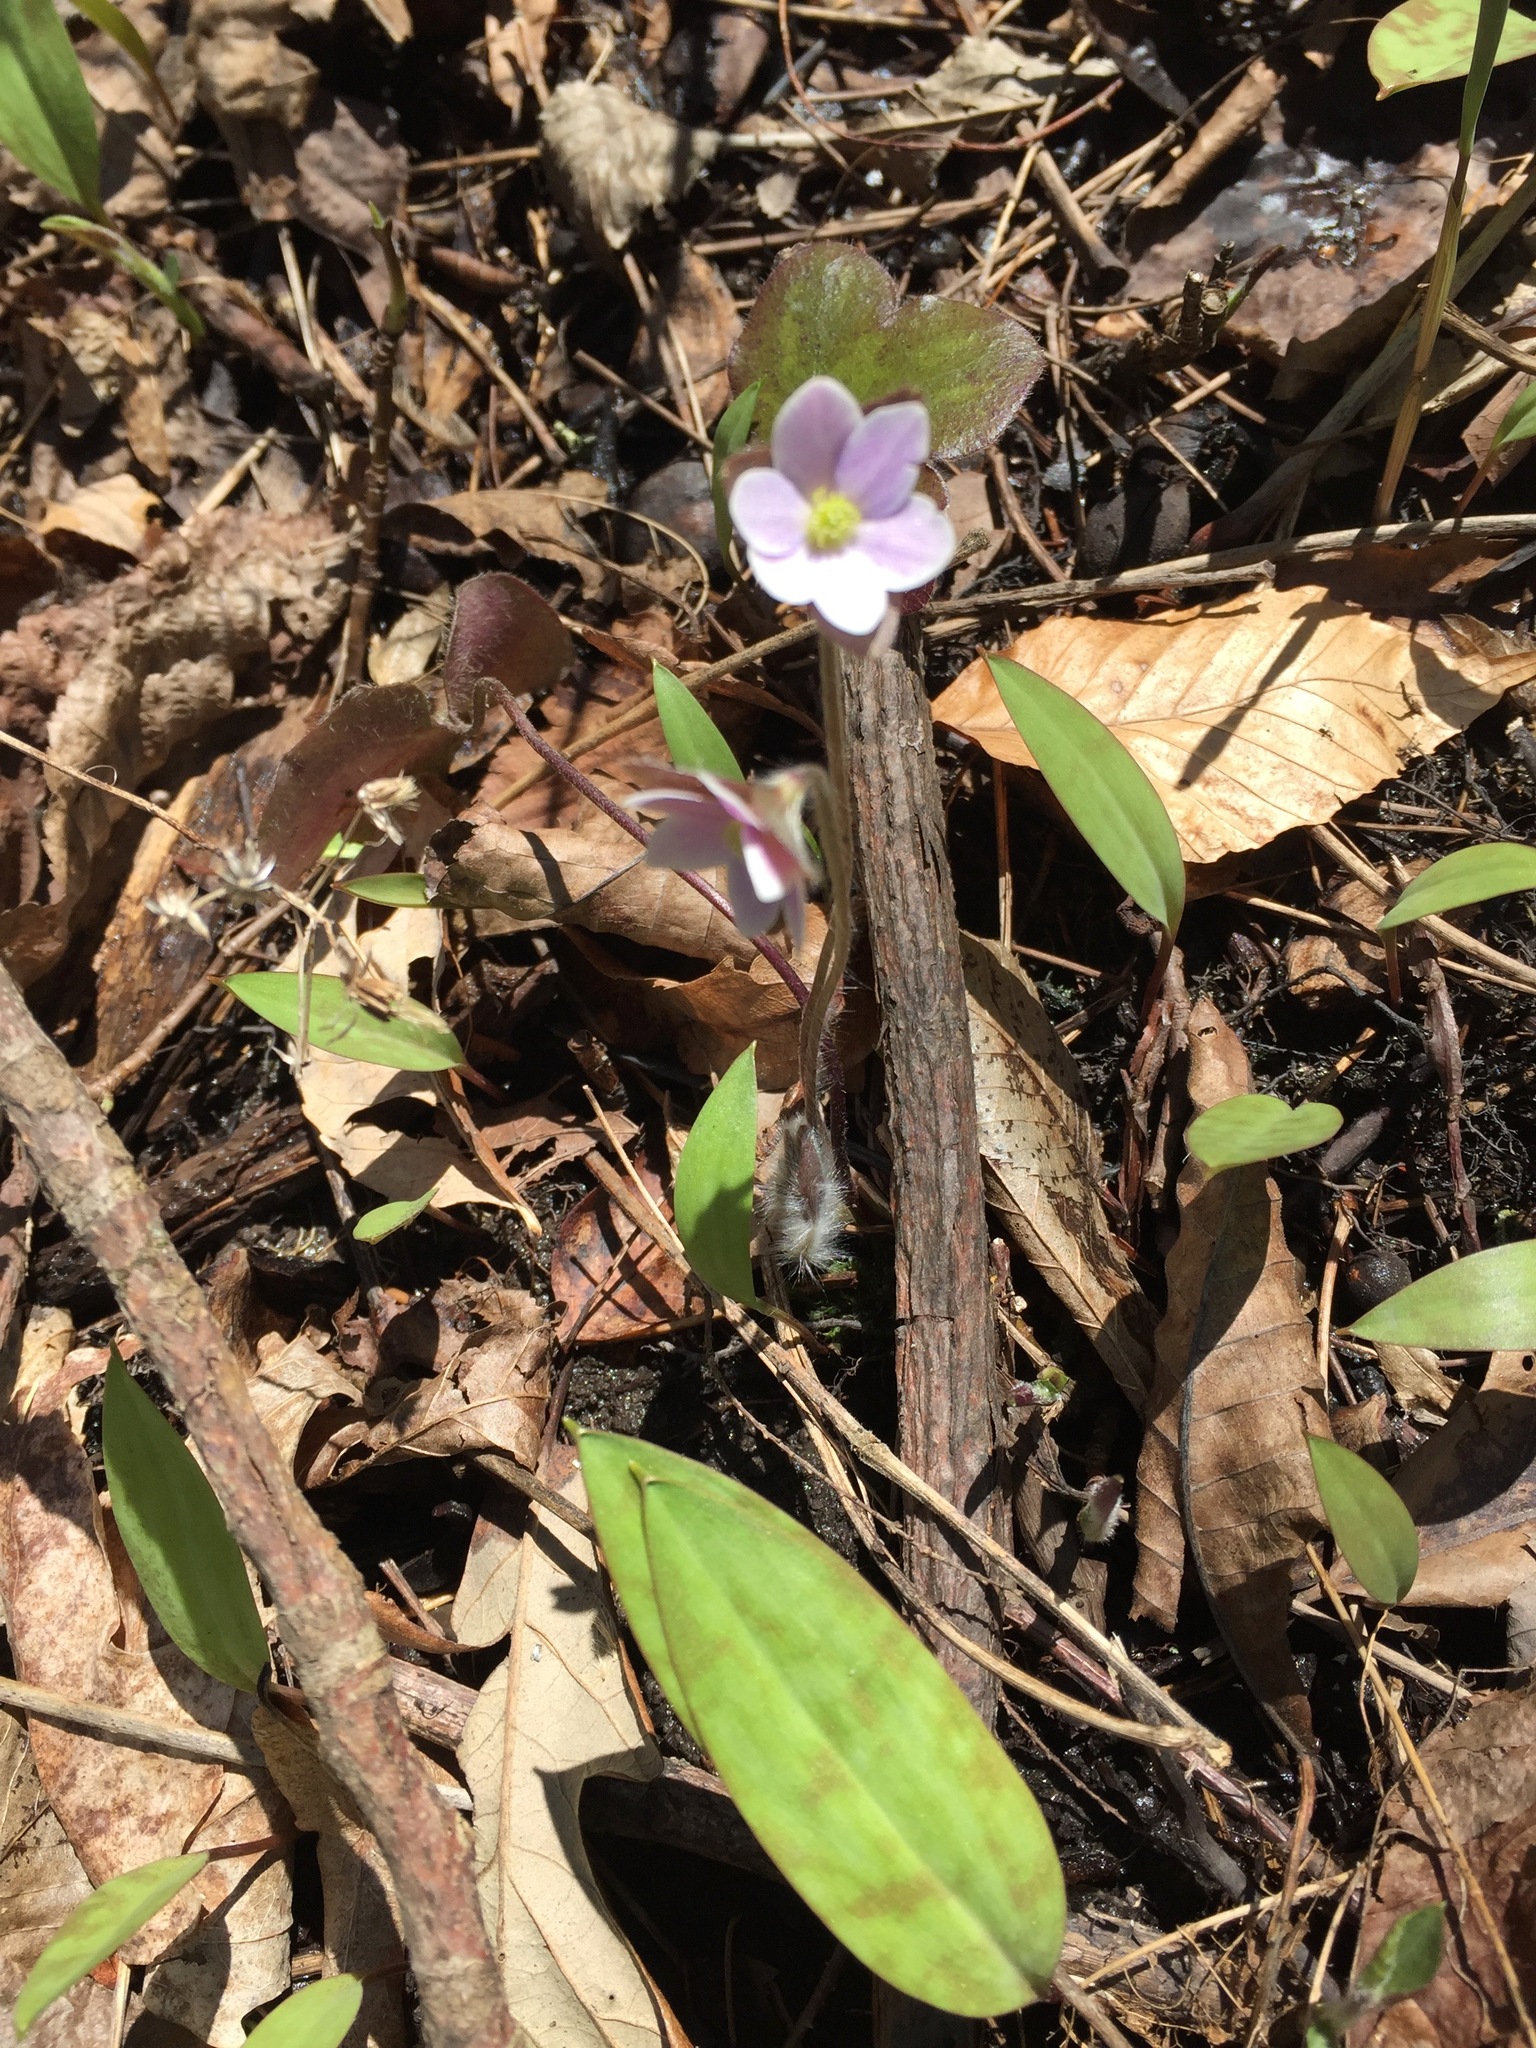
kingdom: Plantae
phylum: Tracheophyta
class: Magnoliopsida
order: Ranunculales
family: Ranunculaceae
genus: Hepatica
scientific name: Hepatica americana
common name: American hepatica
